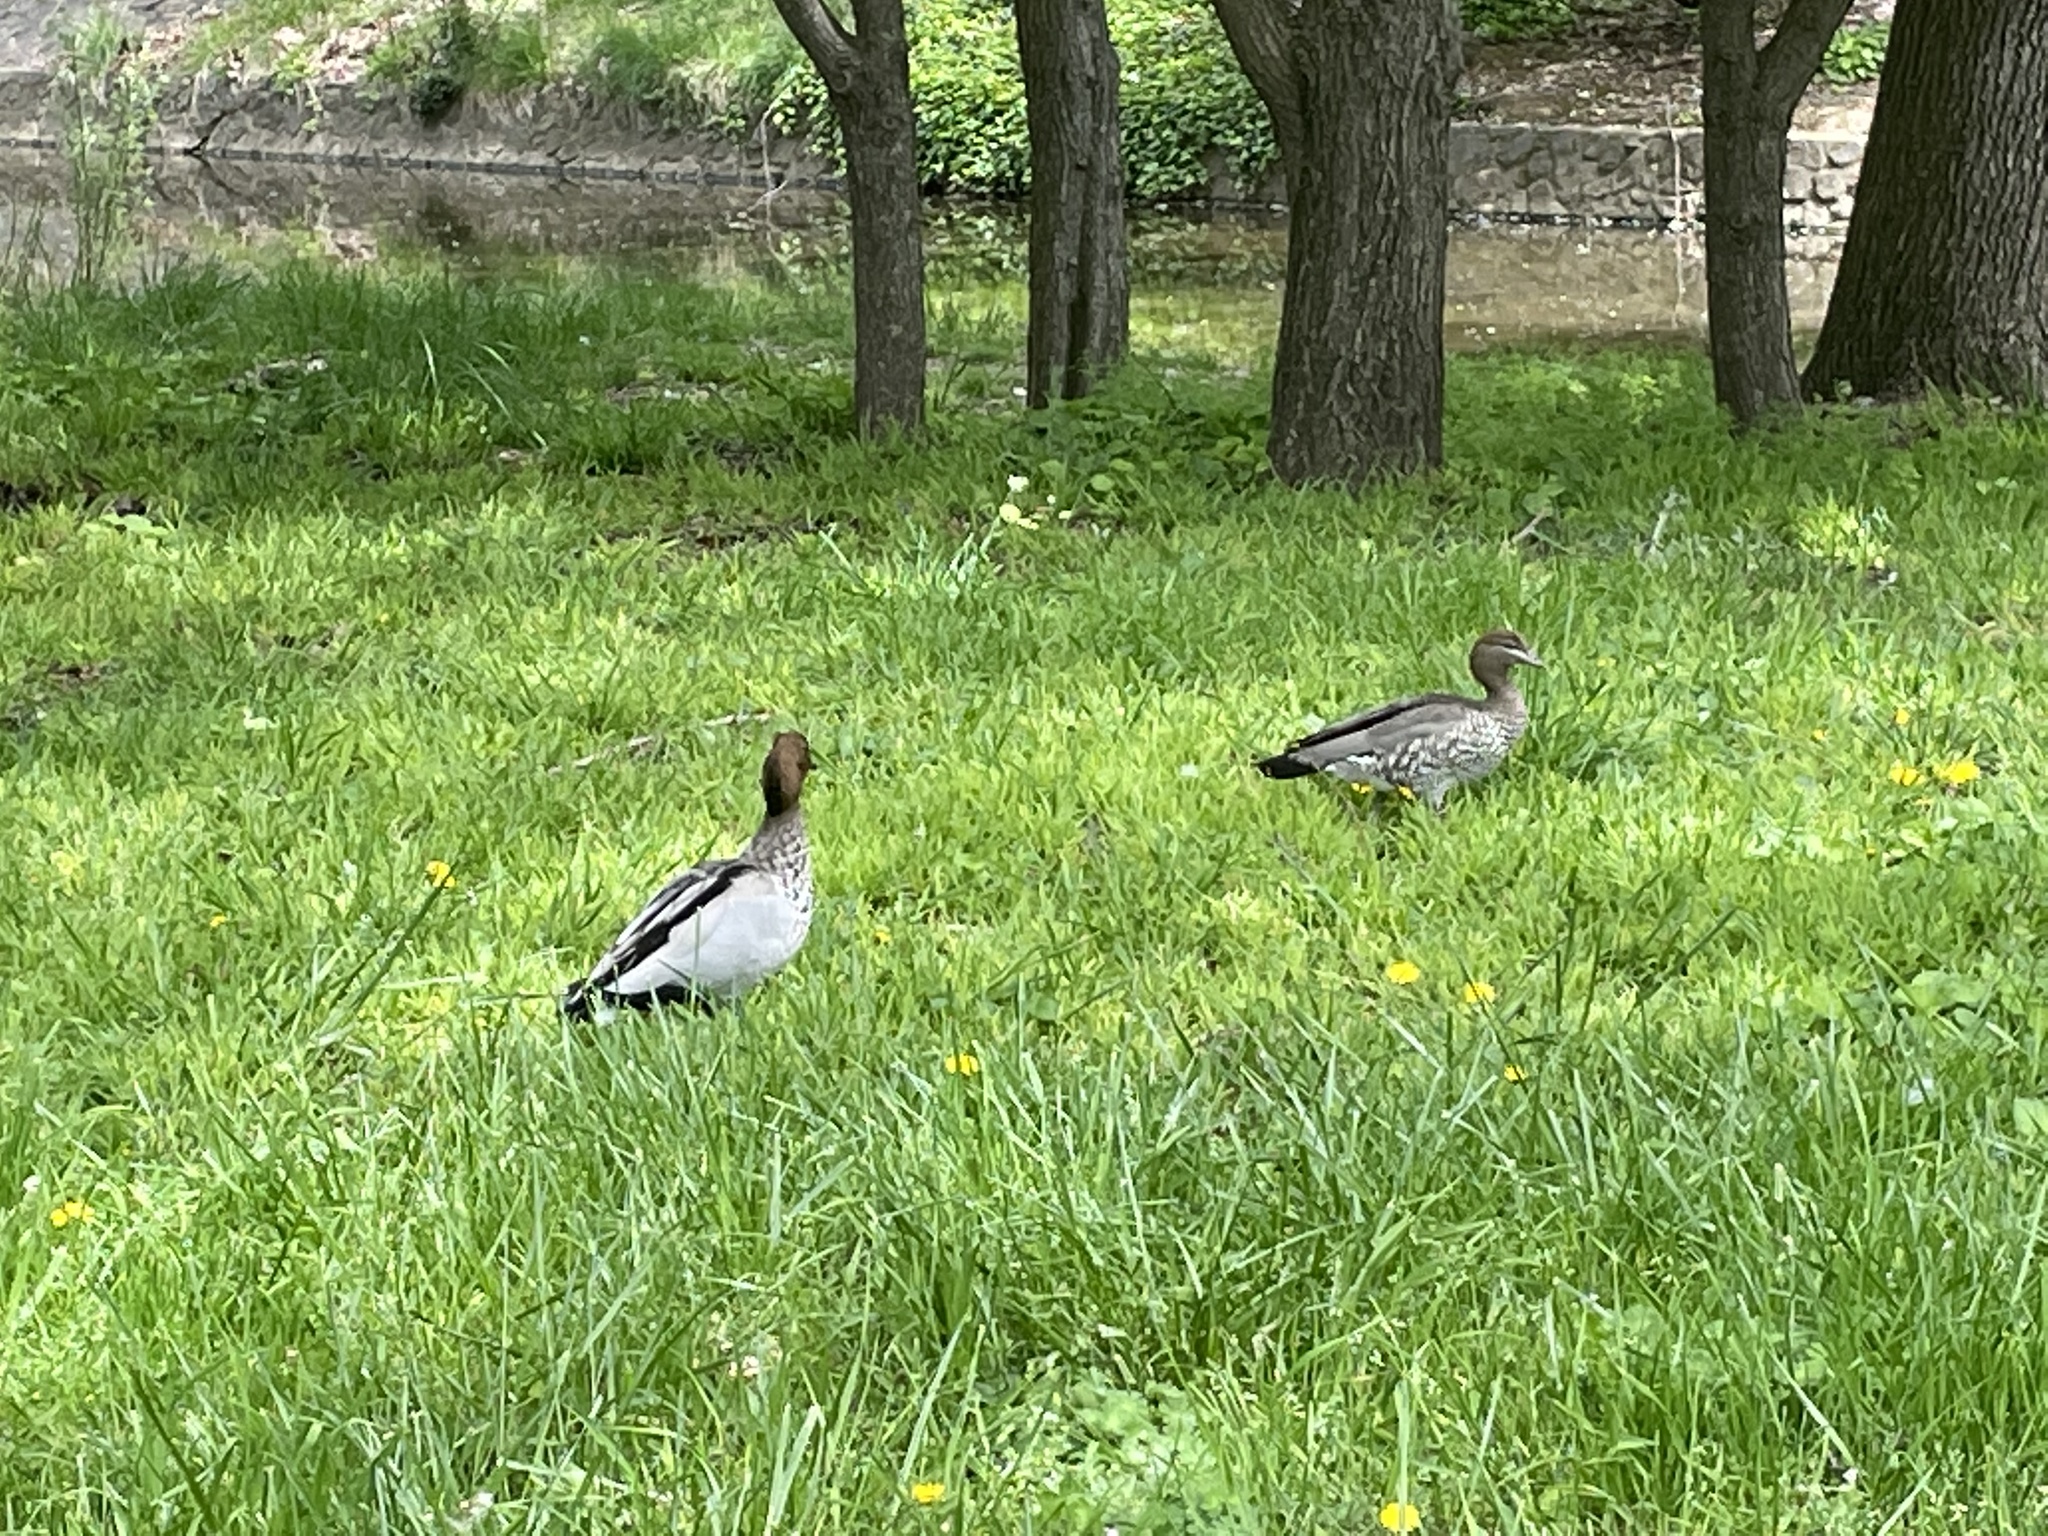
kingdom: Animalia
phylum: Chordata
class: Aves
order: Anseriformes
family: Anatidae
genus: Chenonetta
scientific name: Chenonetta jubata
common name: Maned duck
